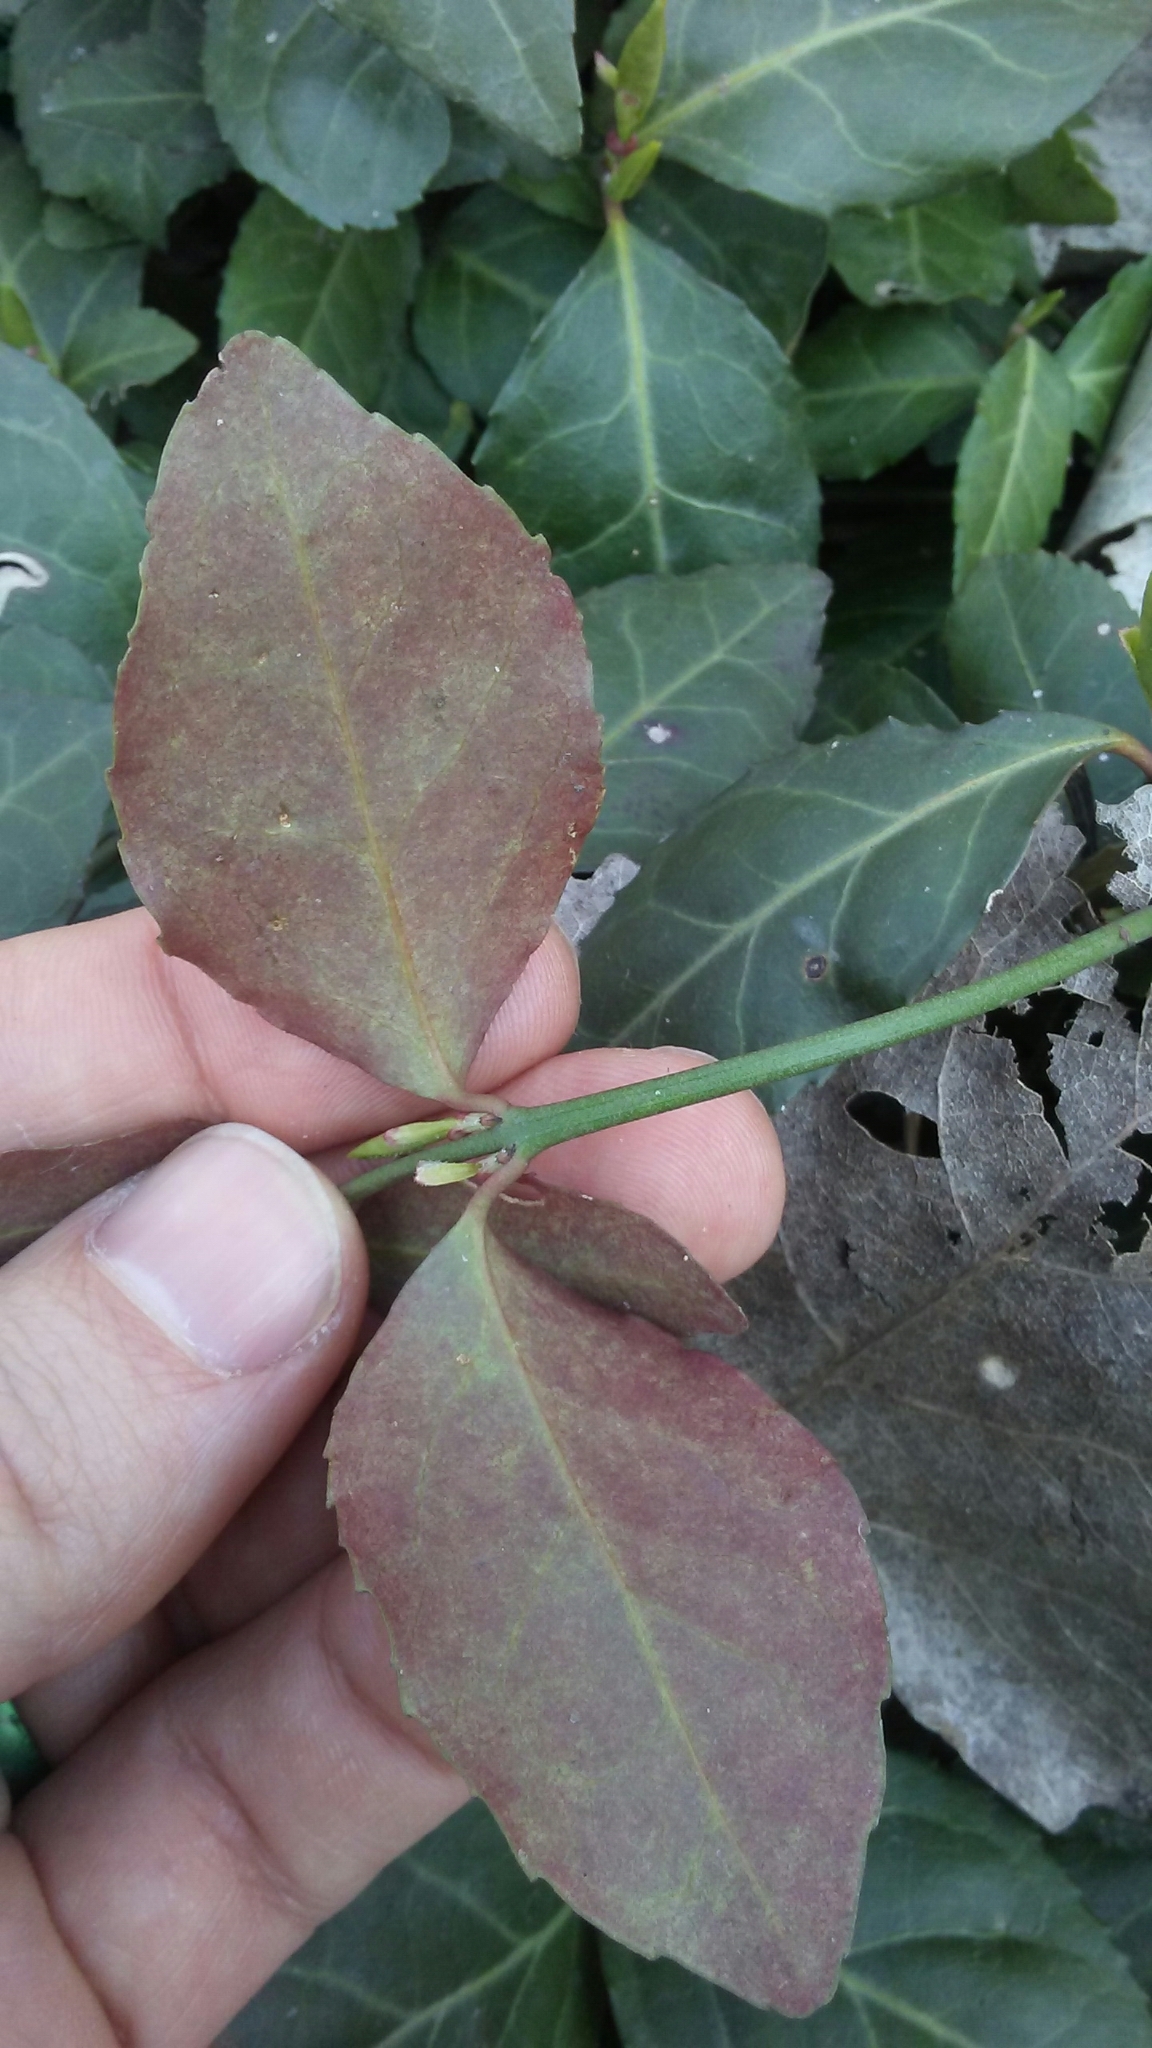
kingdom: Plantae
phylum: Tracheophyta
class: Magnoliopsida
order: Celastrales
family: Celastraceae
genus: Euonymus
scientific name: Euonymus fortunei
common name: Climbing euonymus
